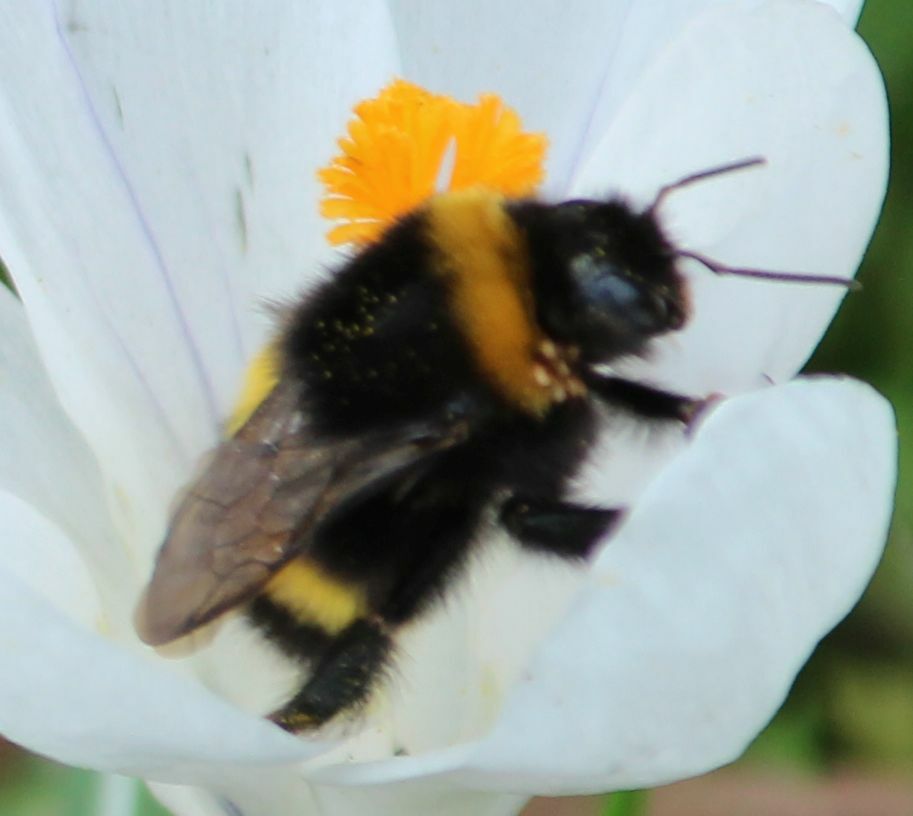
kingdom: Animalia
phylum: Arthropoda
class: Insecta
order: Hymenoptera
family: Apidae
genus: Bombus
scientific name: Bombus
